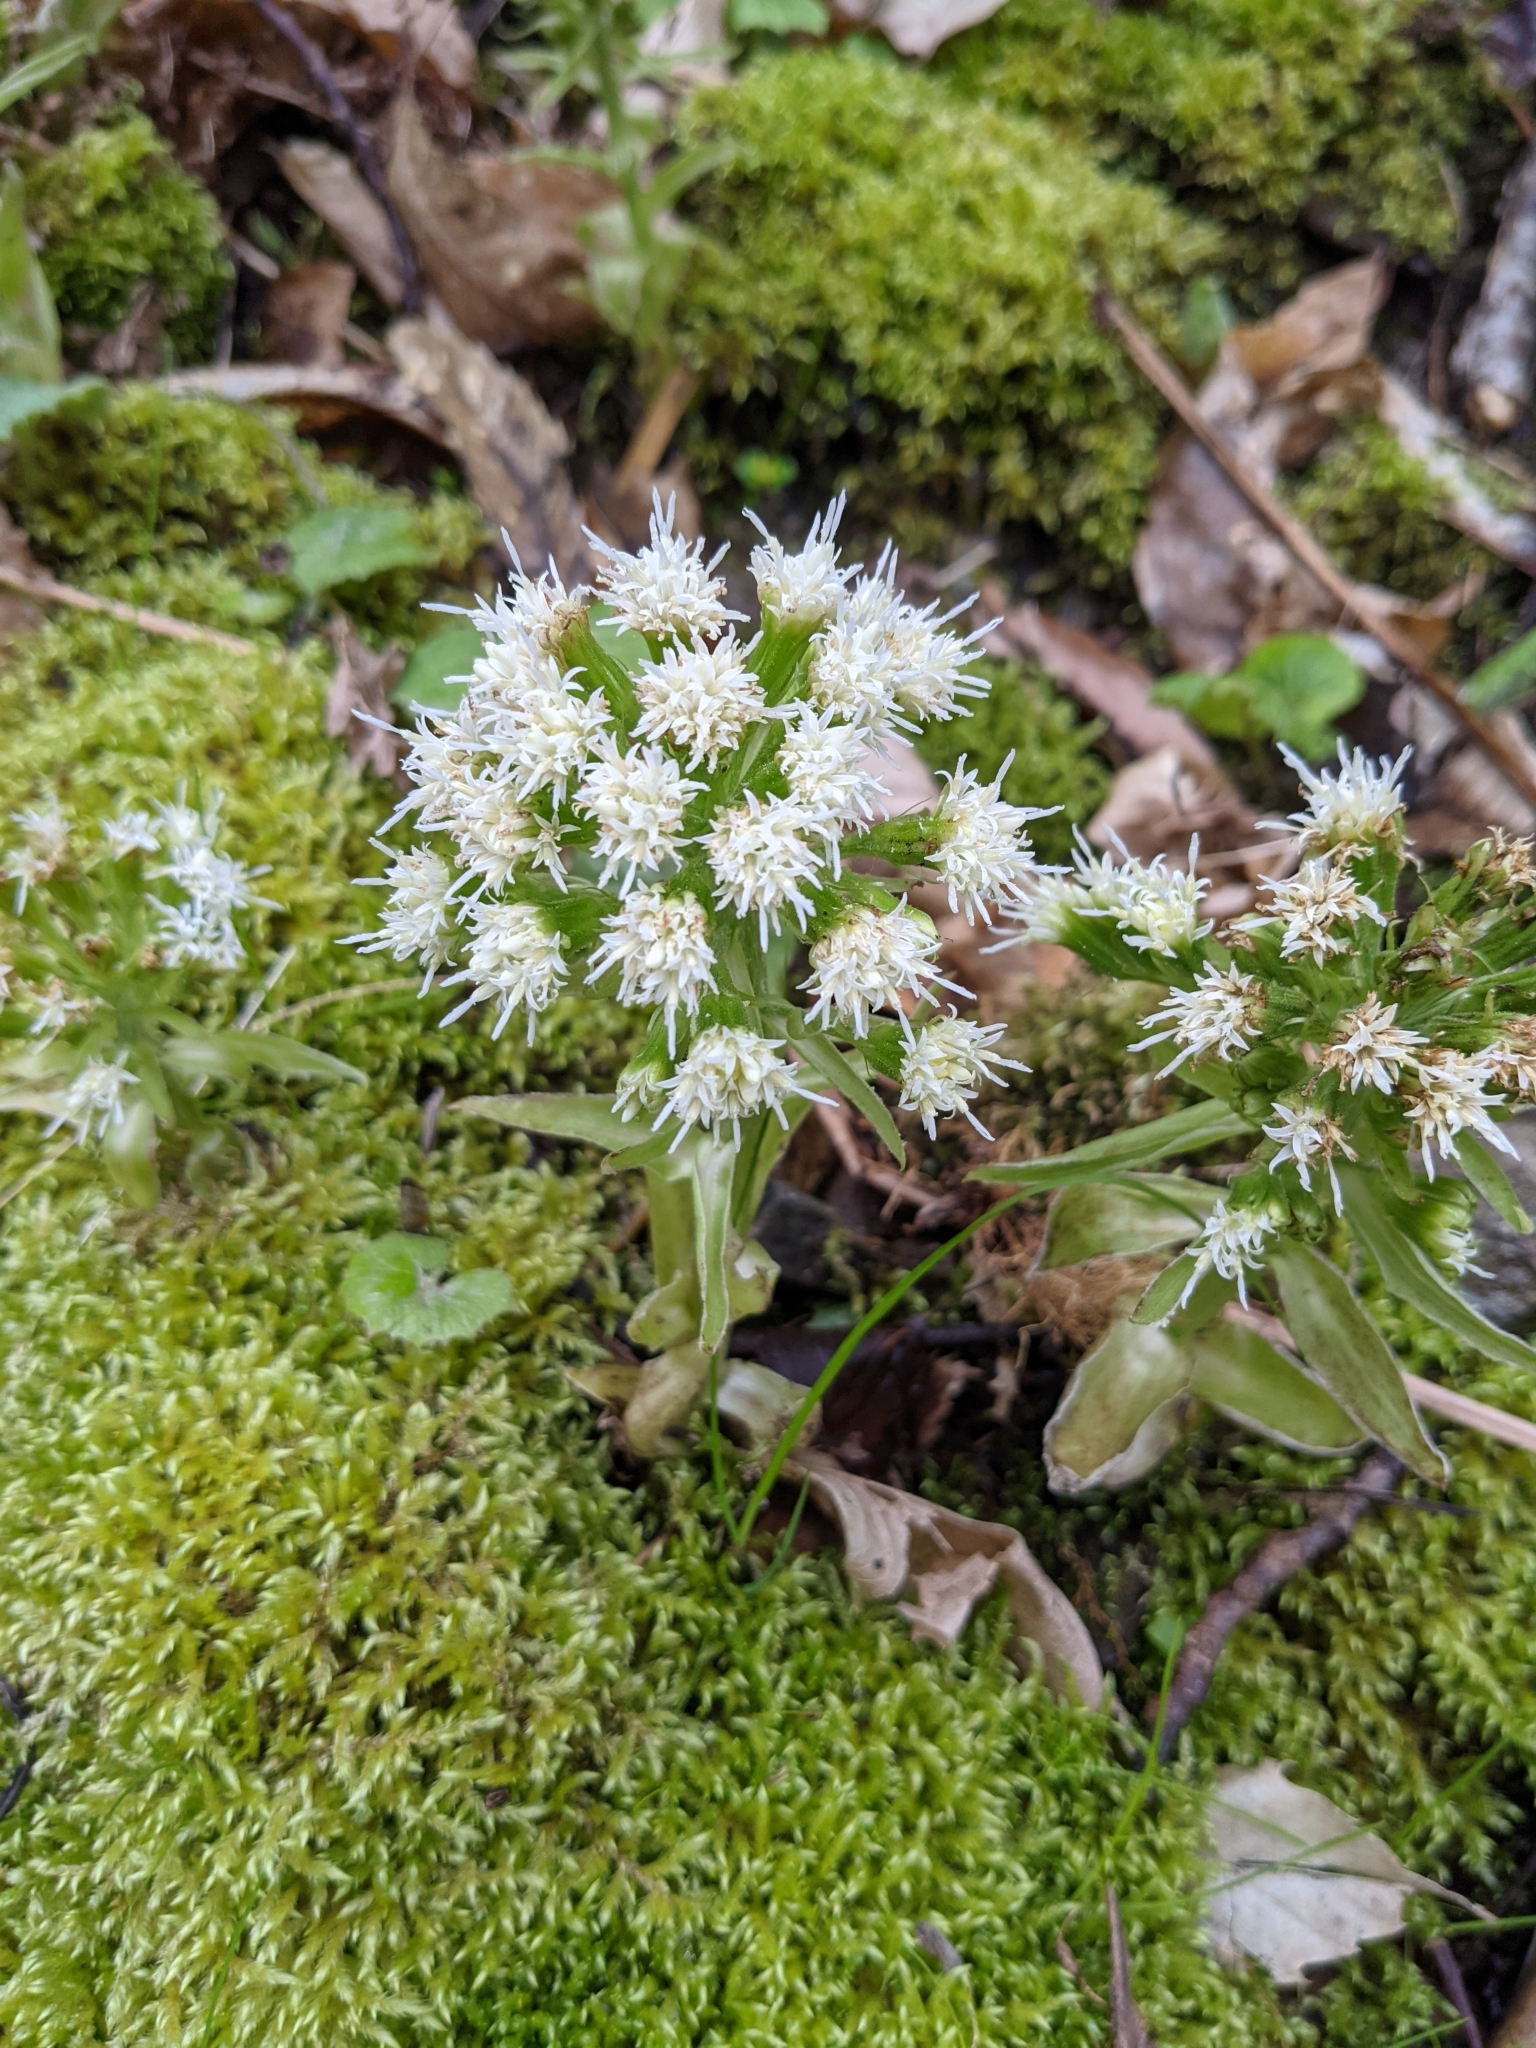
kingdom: Plantae
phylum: Tracheophyta
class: Magnoliopsida
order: Asterales
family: Asteraceae
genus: Petasites
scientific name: Petasites albus
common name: White butterbur
